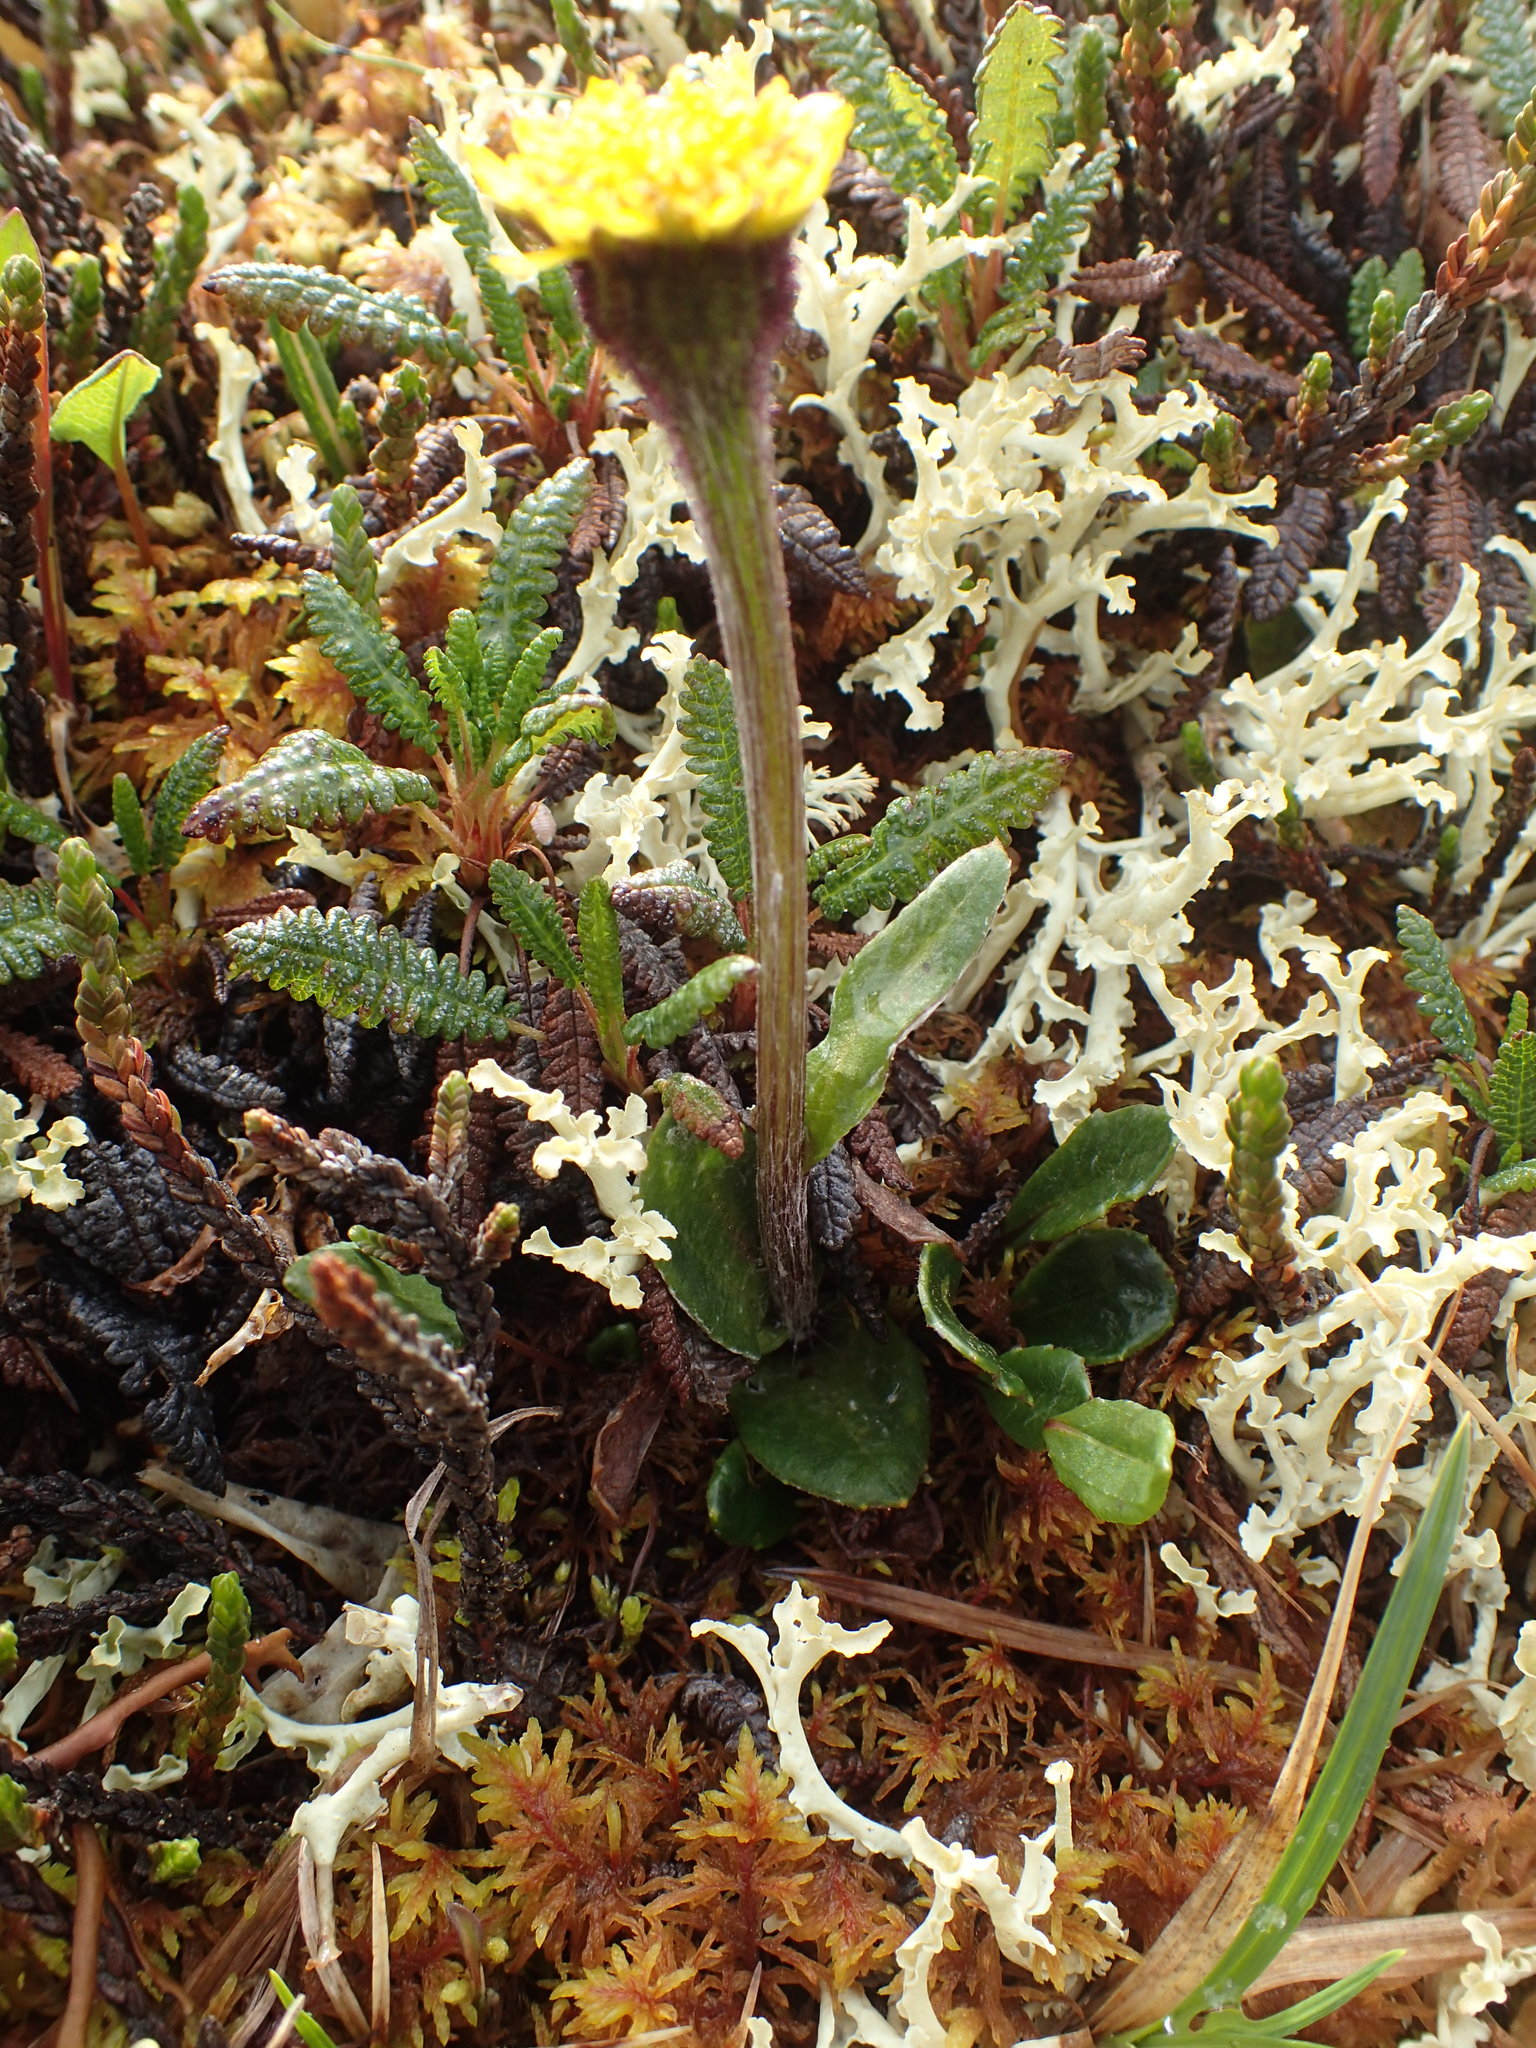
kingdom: Plantae
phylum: Tracheophyta
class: Magnoliopsida
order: Asterales
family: Asteraceae
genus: Tephroseris
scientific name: Tephroseris frigida
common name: Arctic groundsel
